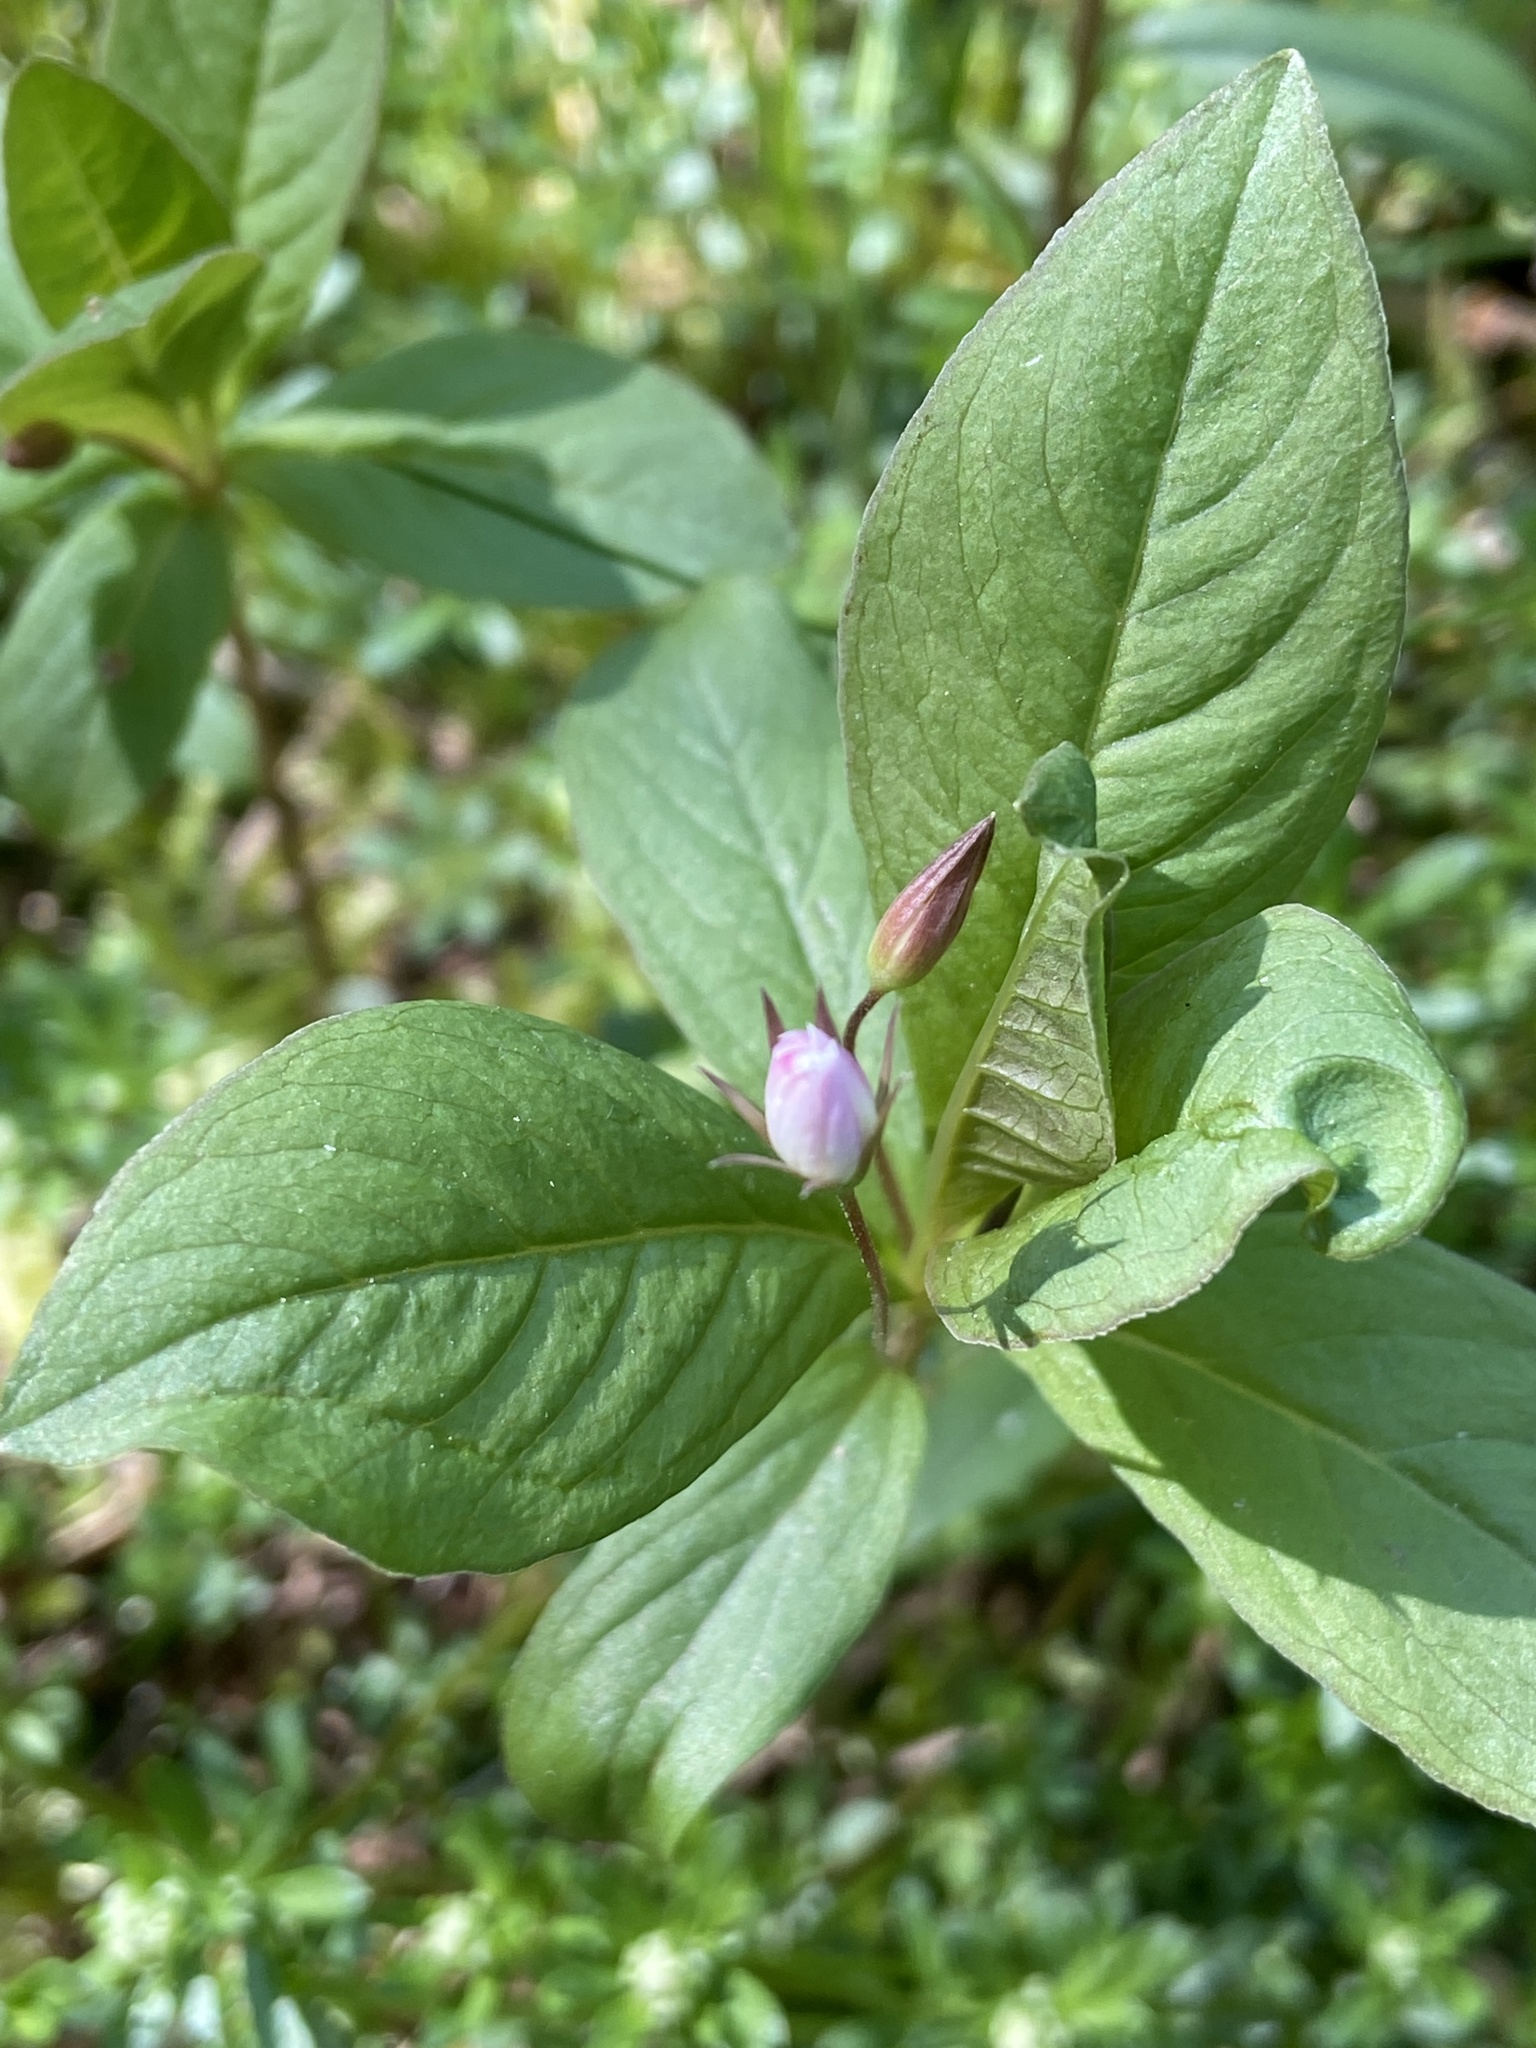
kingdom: Plantae
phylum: Tracheophyta
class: Magnoliopsida
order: Ericales
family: Primulaceae
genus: Lysimachia
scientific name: Lysimachia europaea
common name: Arctic starflower
